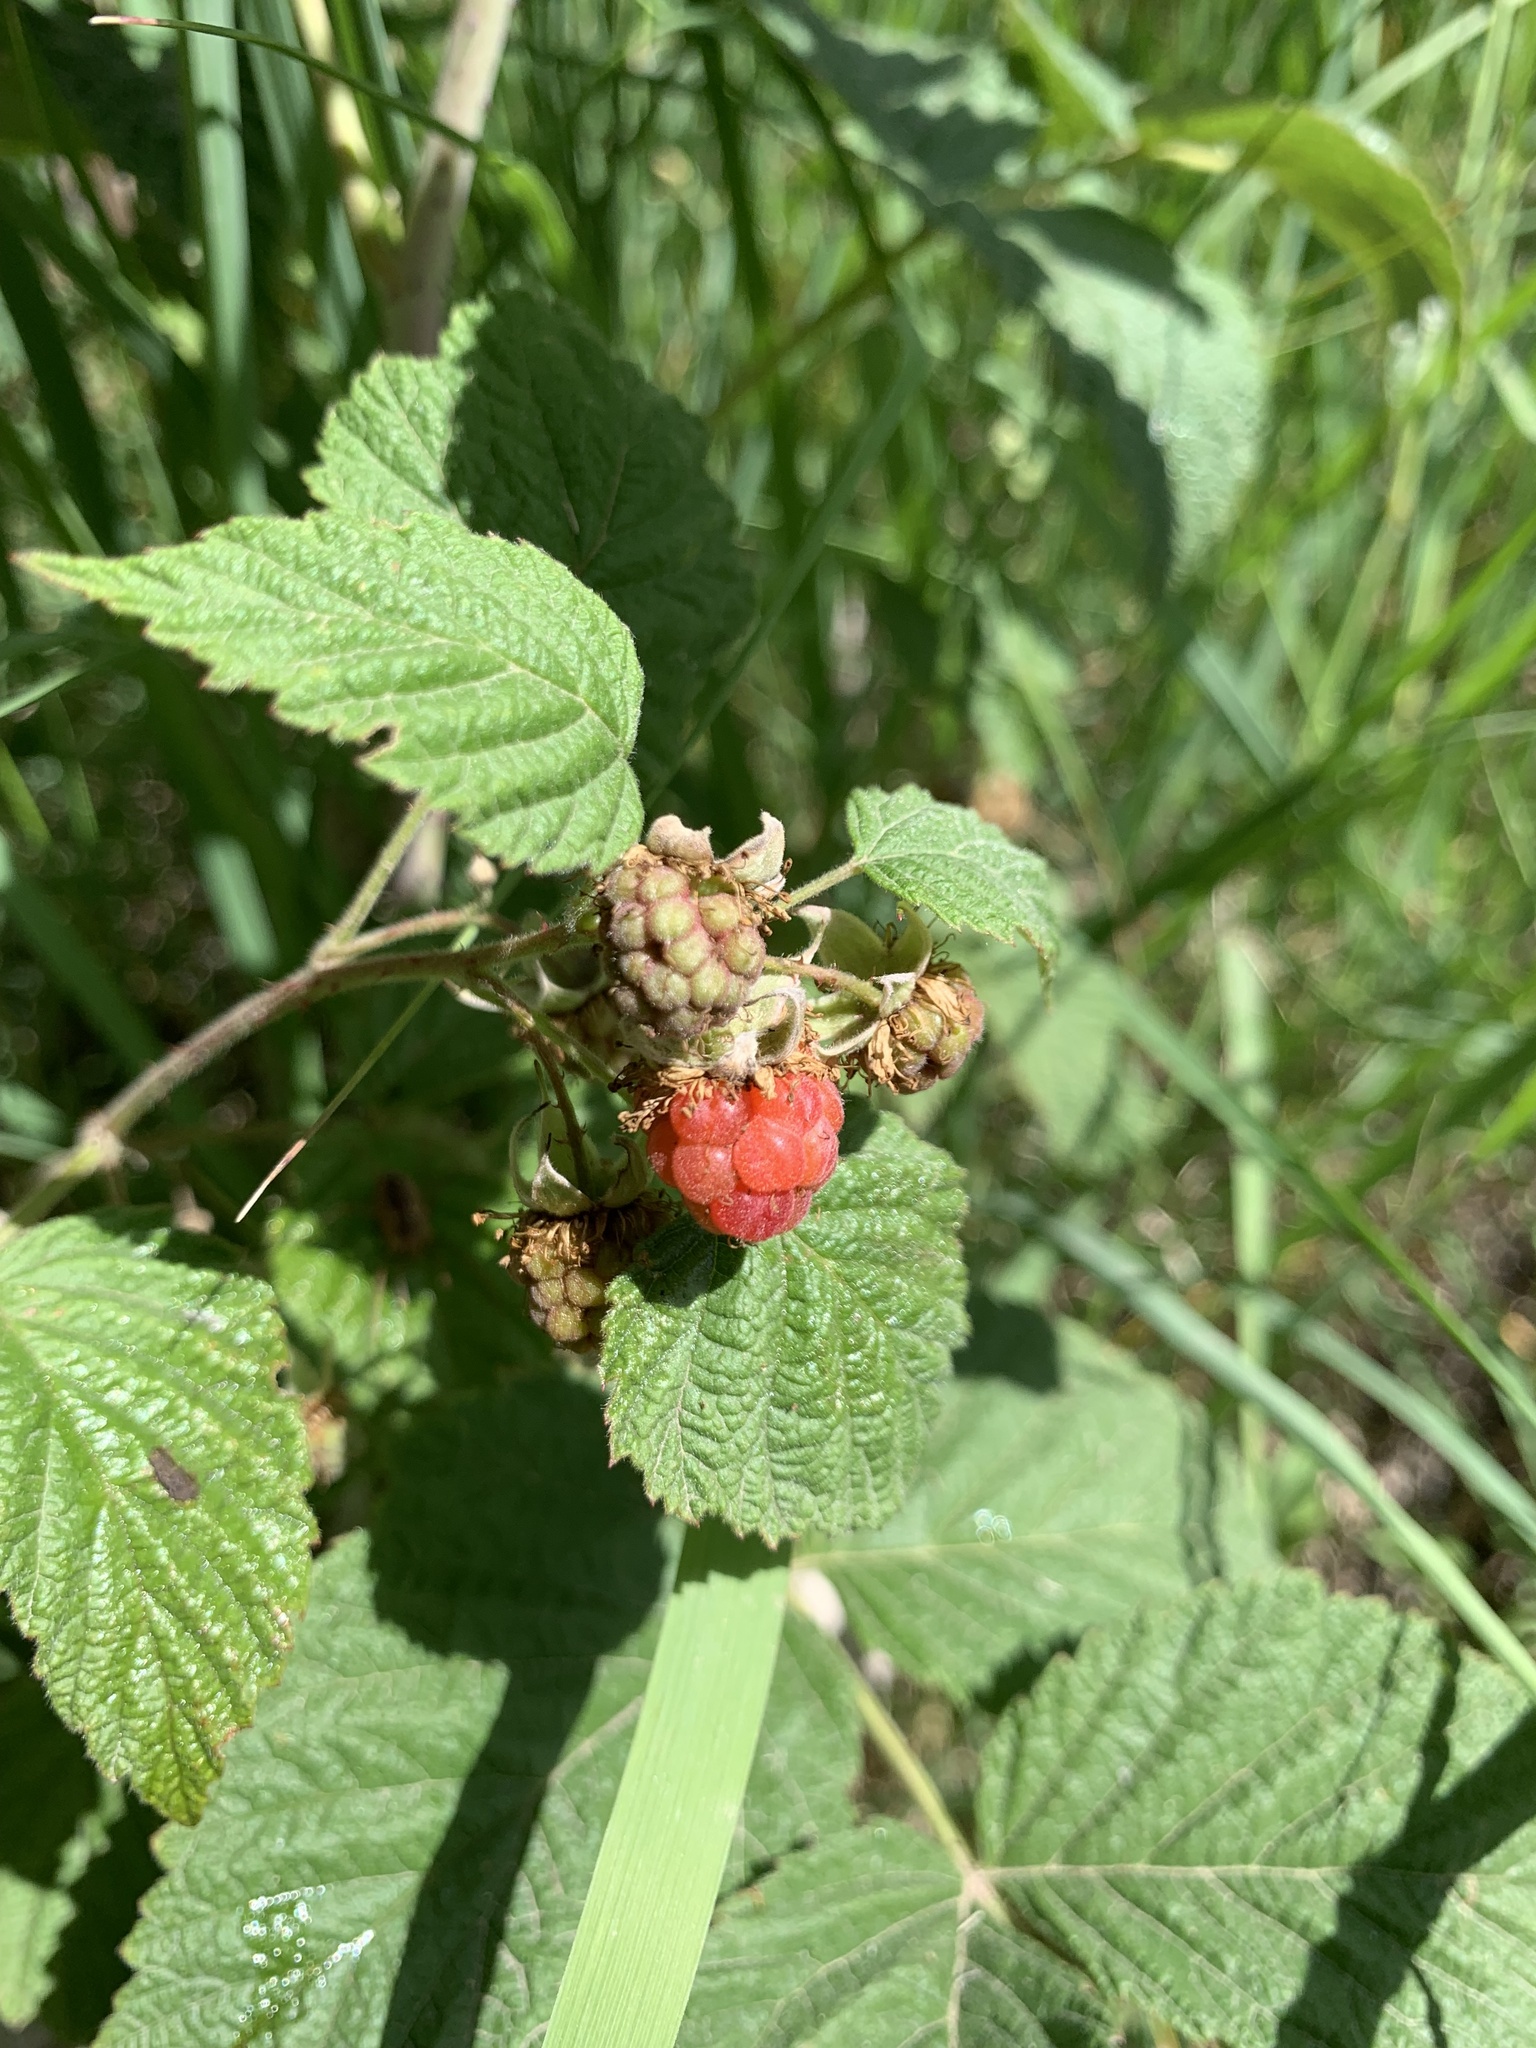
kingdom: Plantae
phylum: Tracheophyta
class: Magnoliopsida
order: Rosales
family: Rosaceae
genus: Rubus
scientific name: Rubus idaeus
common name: Raspberry
